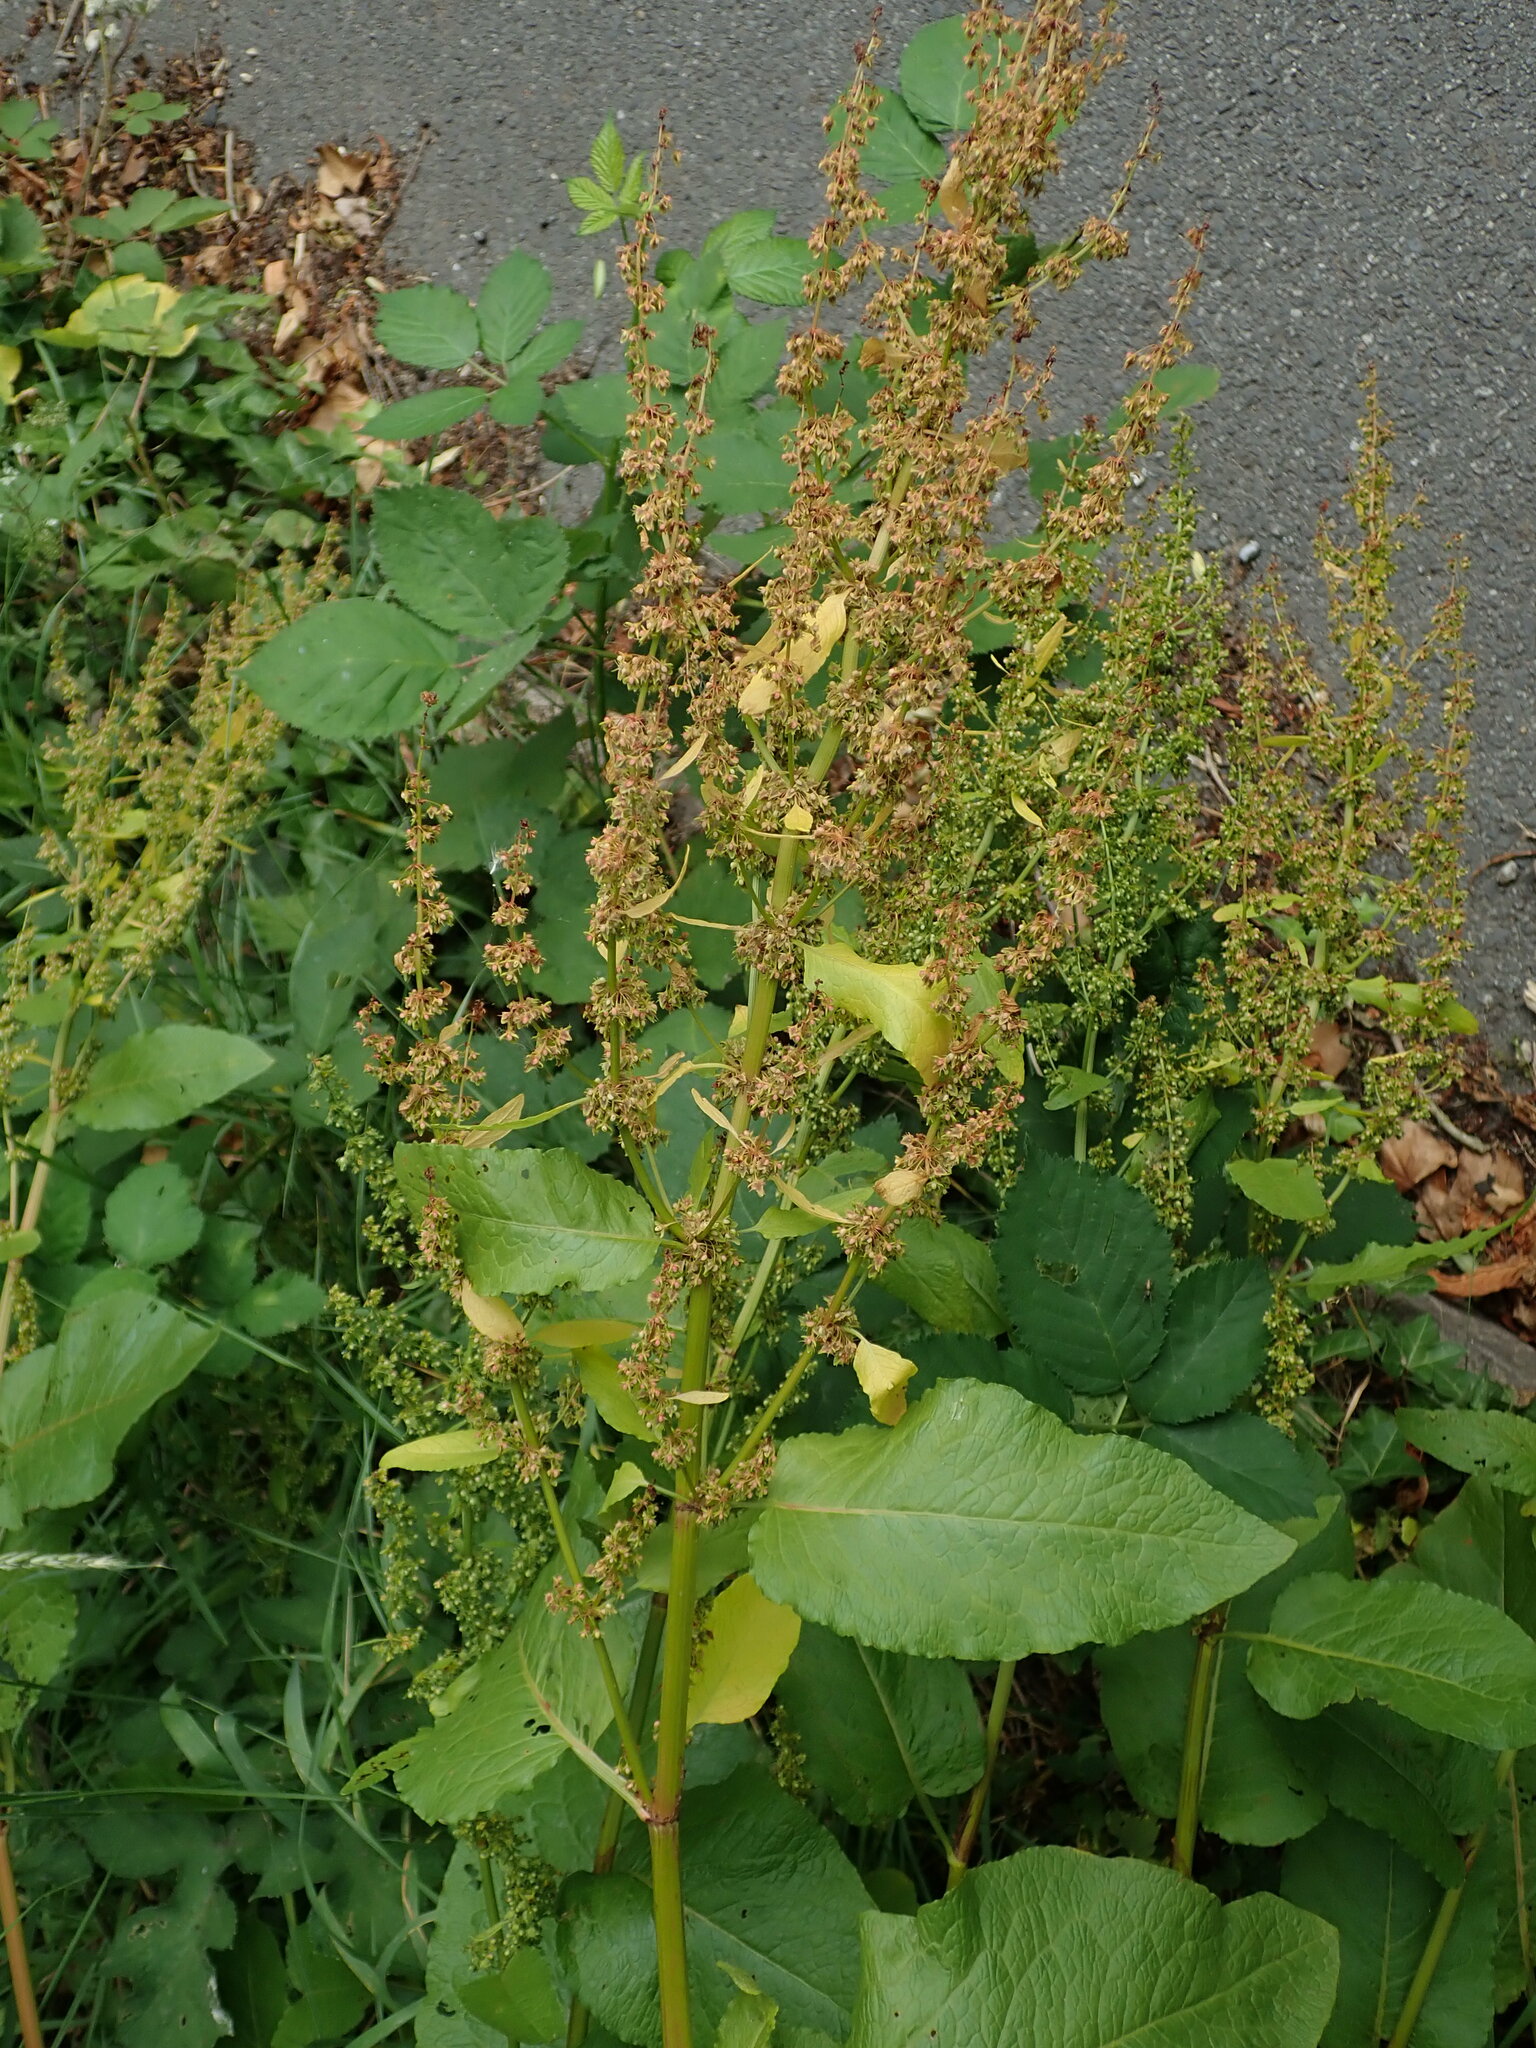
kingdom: Plantae
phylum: Tracheophyta
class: Magnoliopsida
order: Caryophyllales
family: Polygonaceae
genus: Rumex
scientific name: Rumex obtusifolius
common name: Bitter dock
